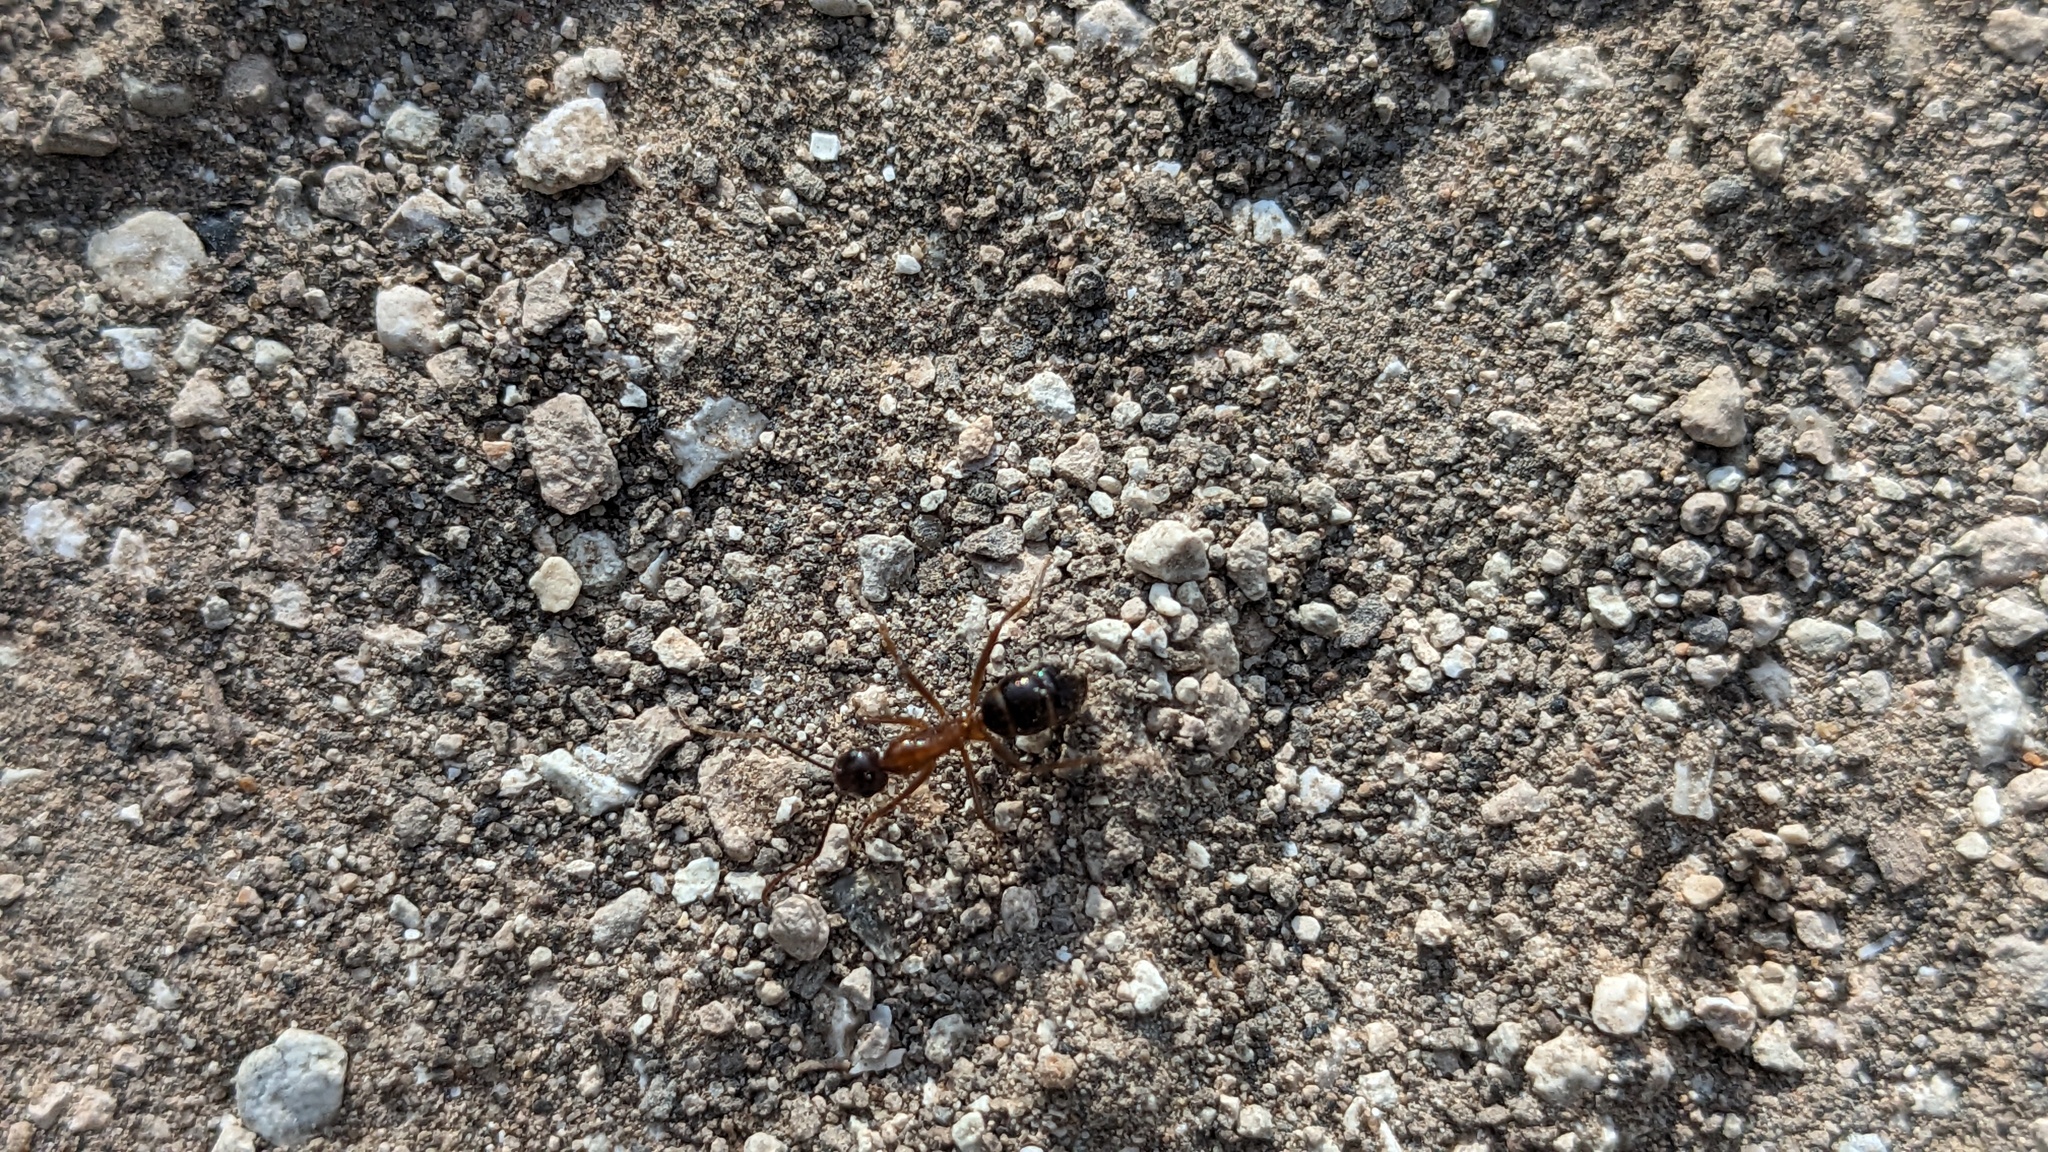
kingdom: Animalia
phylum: Arthropoda
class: Insecta
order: Hymenoptera
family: Formicidae
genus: Camponotus
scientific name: Camponotus atriceps
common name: Florida carpenter ant
